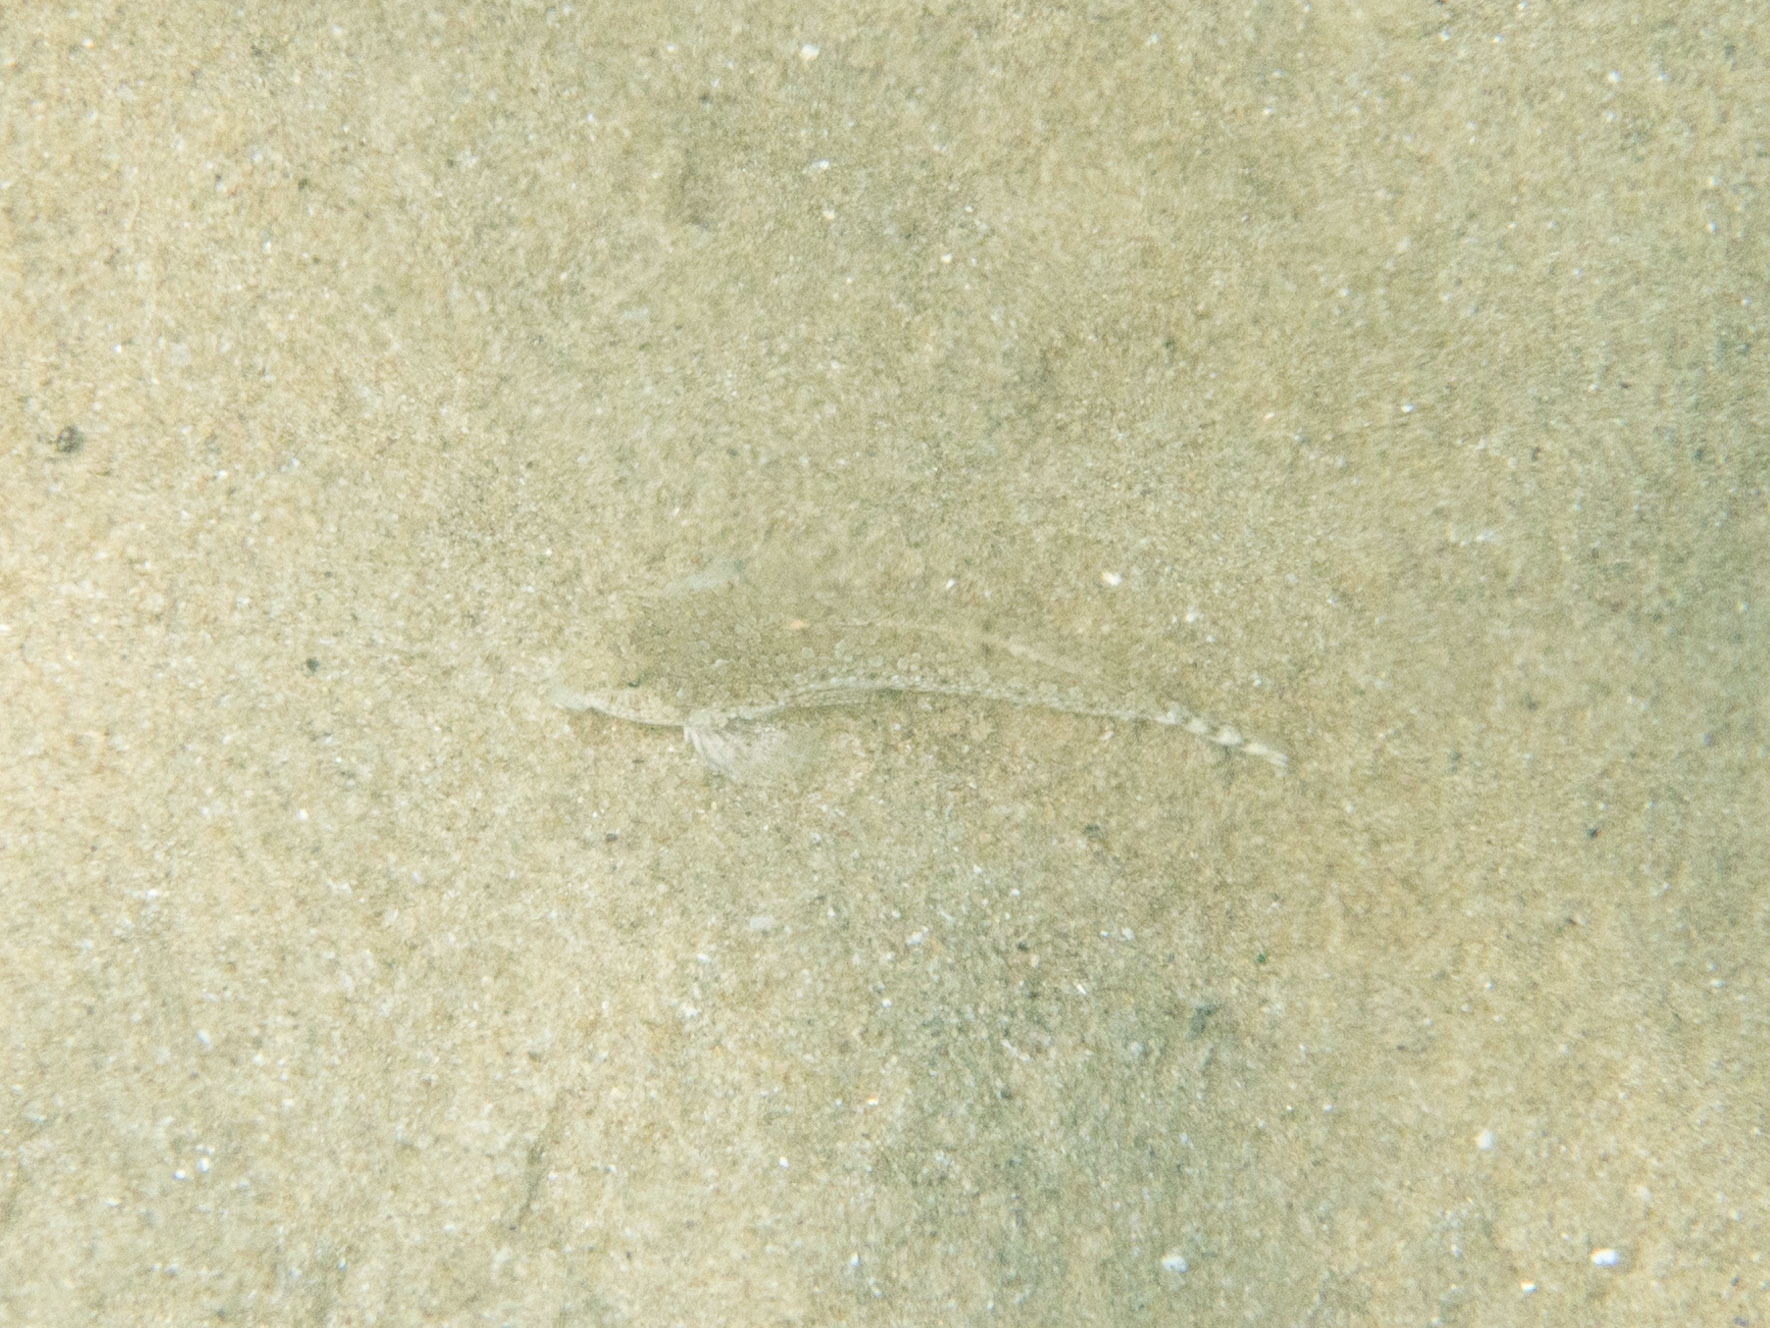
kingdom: Animalia
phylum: Chordata
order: Perciformes
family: Callionymidae
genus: Callionymus
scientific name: Callionymus risso
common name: Risso’s dragonet
